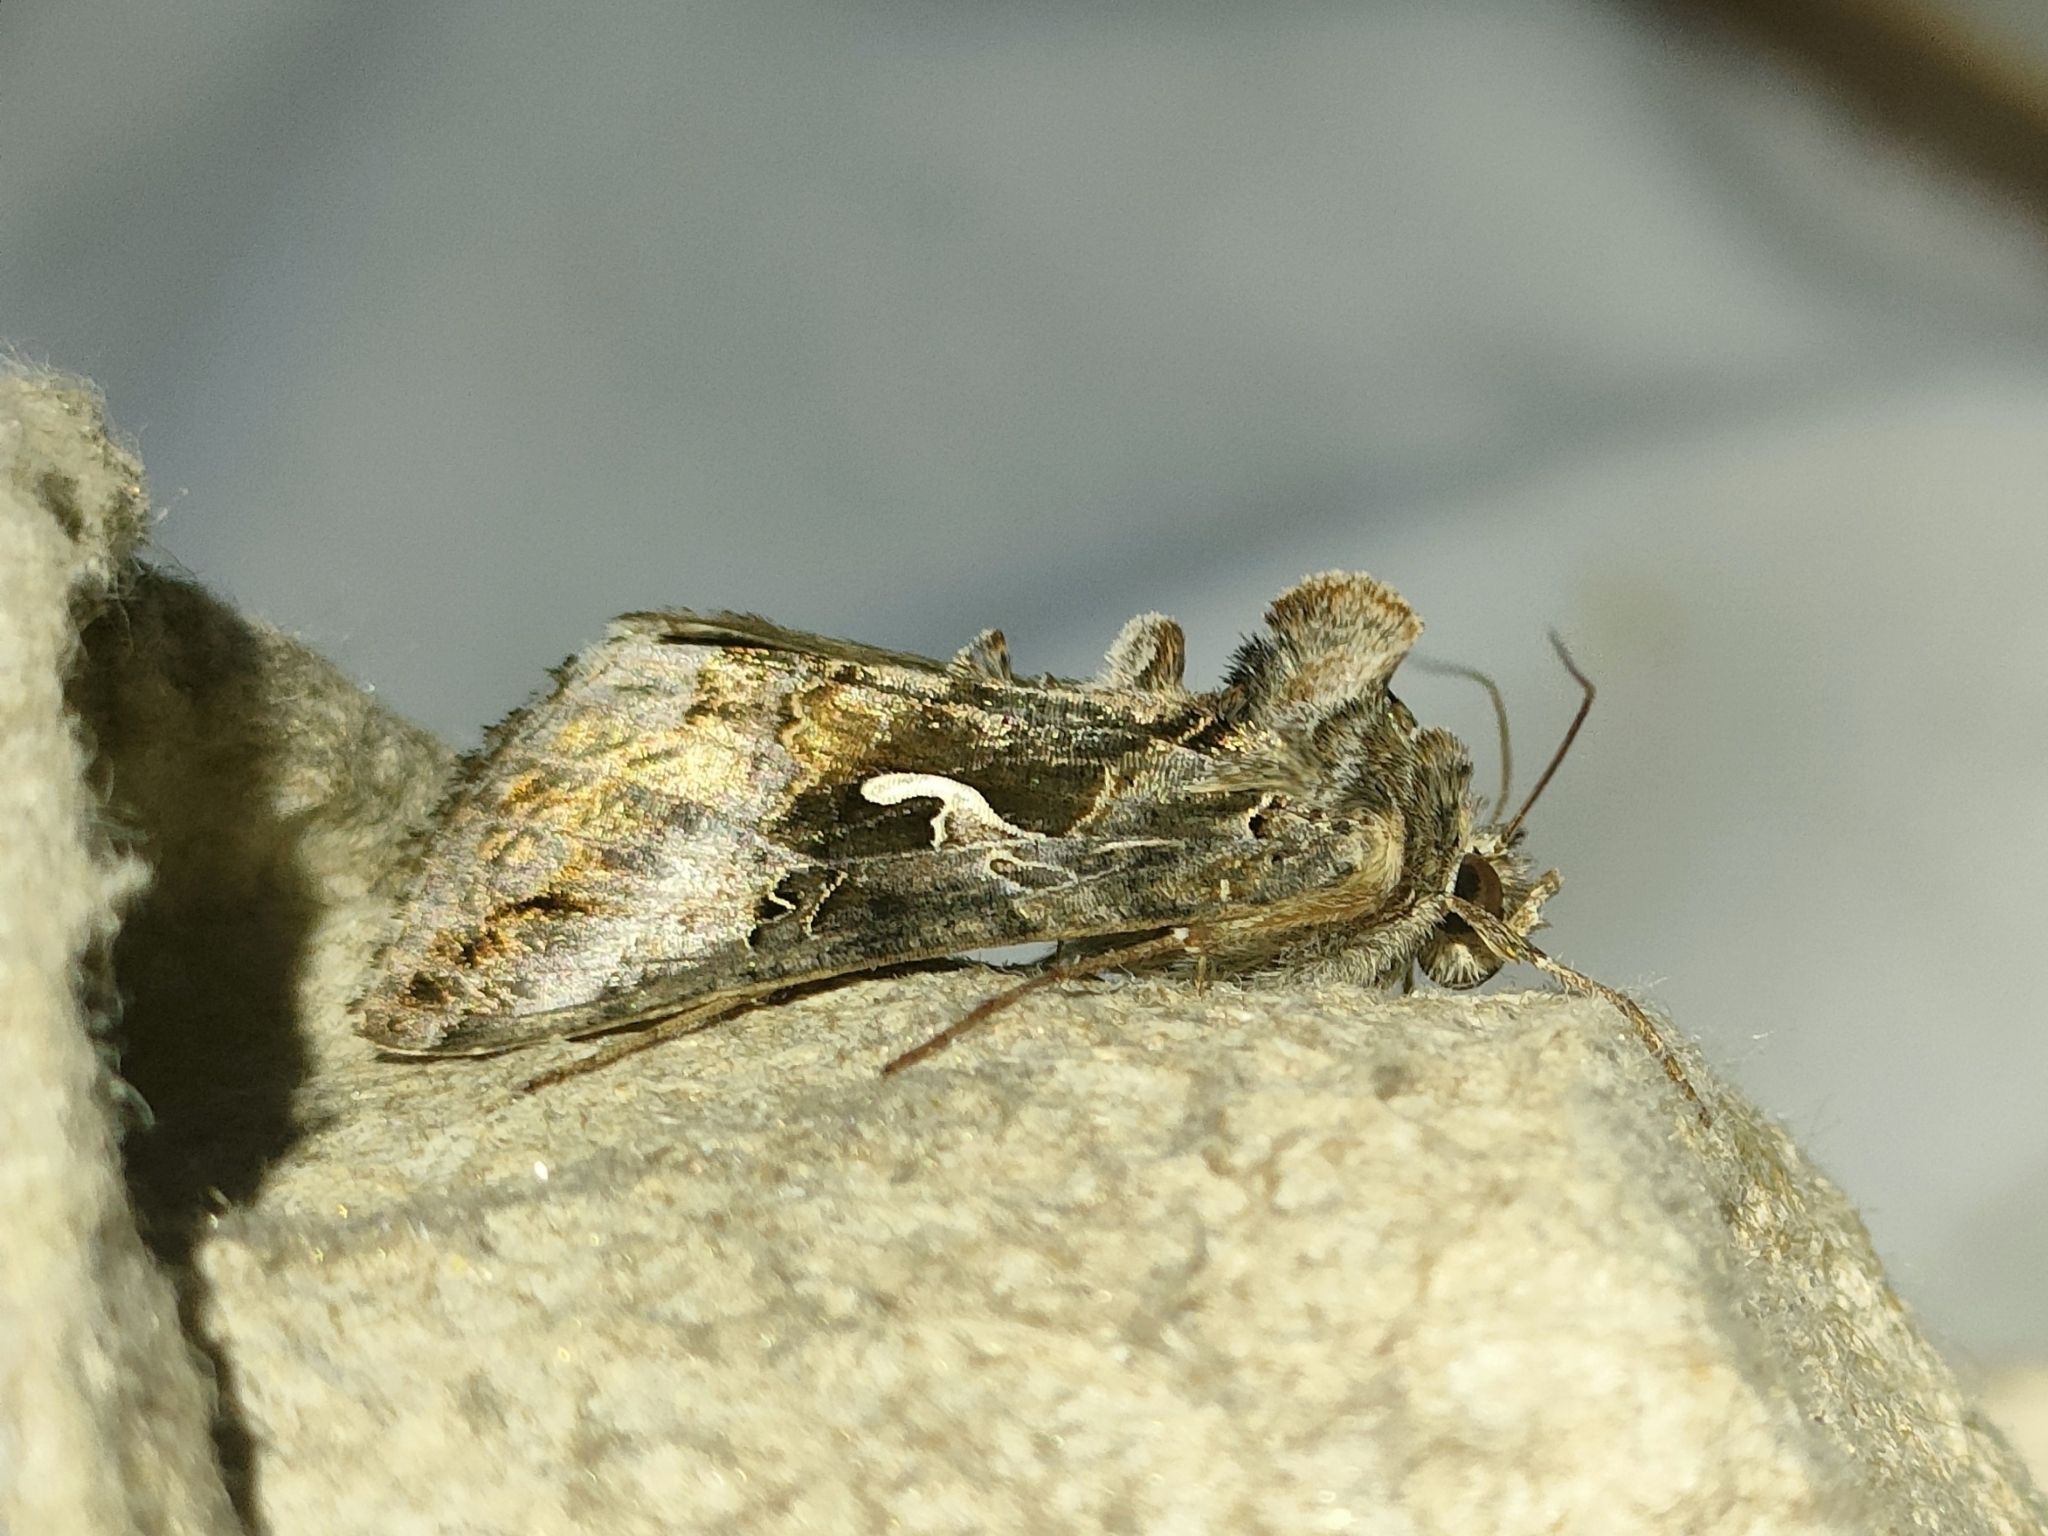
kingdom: Animalia
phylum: Arthropoda
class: Insecta
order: Lepidoptera
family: Noctuidae
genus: Autographa
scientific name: Autographa gamma
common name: Silver y
